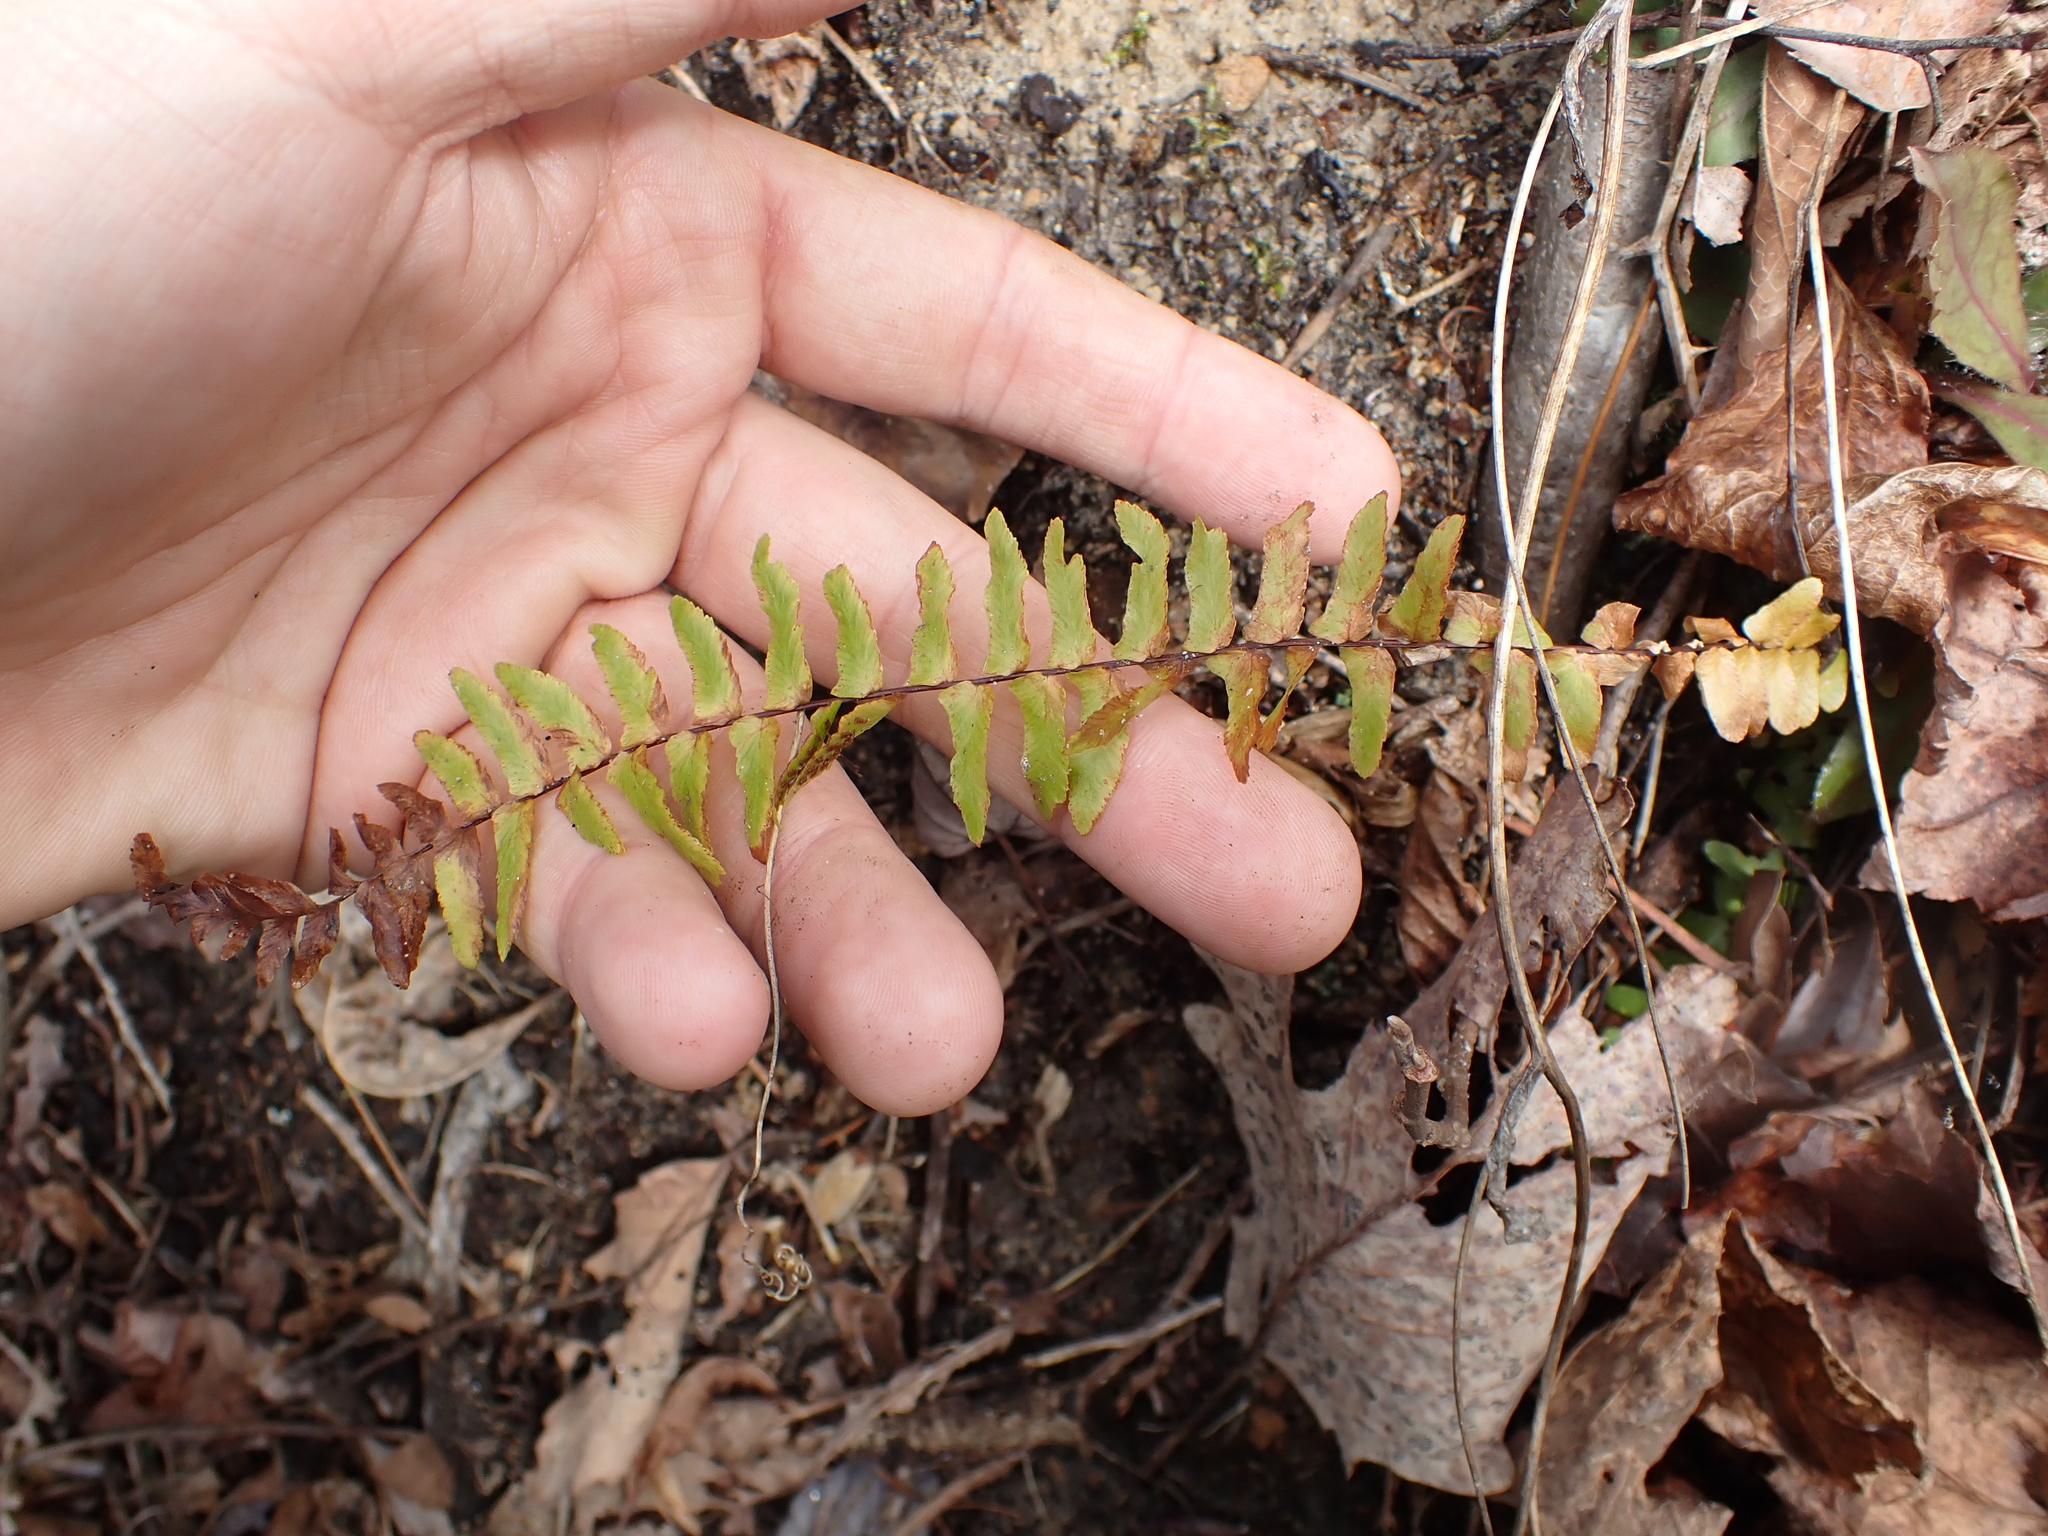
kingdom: Plantae
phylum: Tracheophyta
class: Polypodiopsida
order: Polypodiales
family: Aspleniaceae
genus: Asplenium
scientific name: Asplenium platyneuron
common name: Ebony spleenwort
